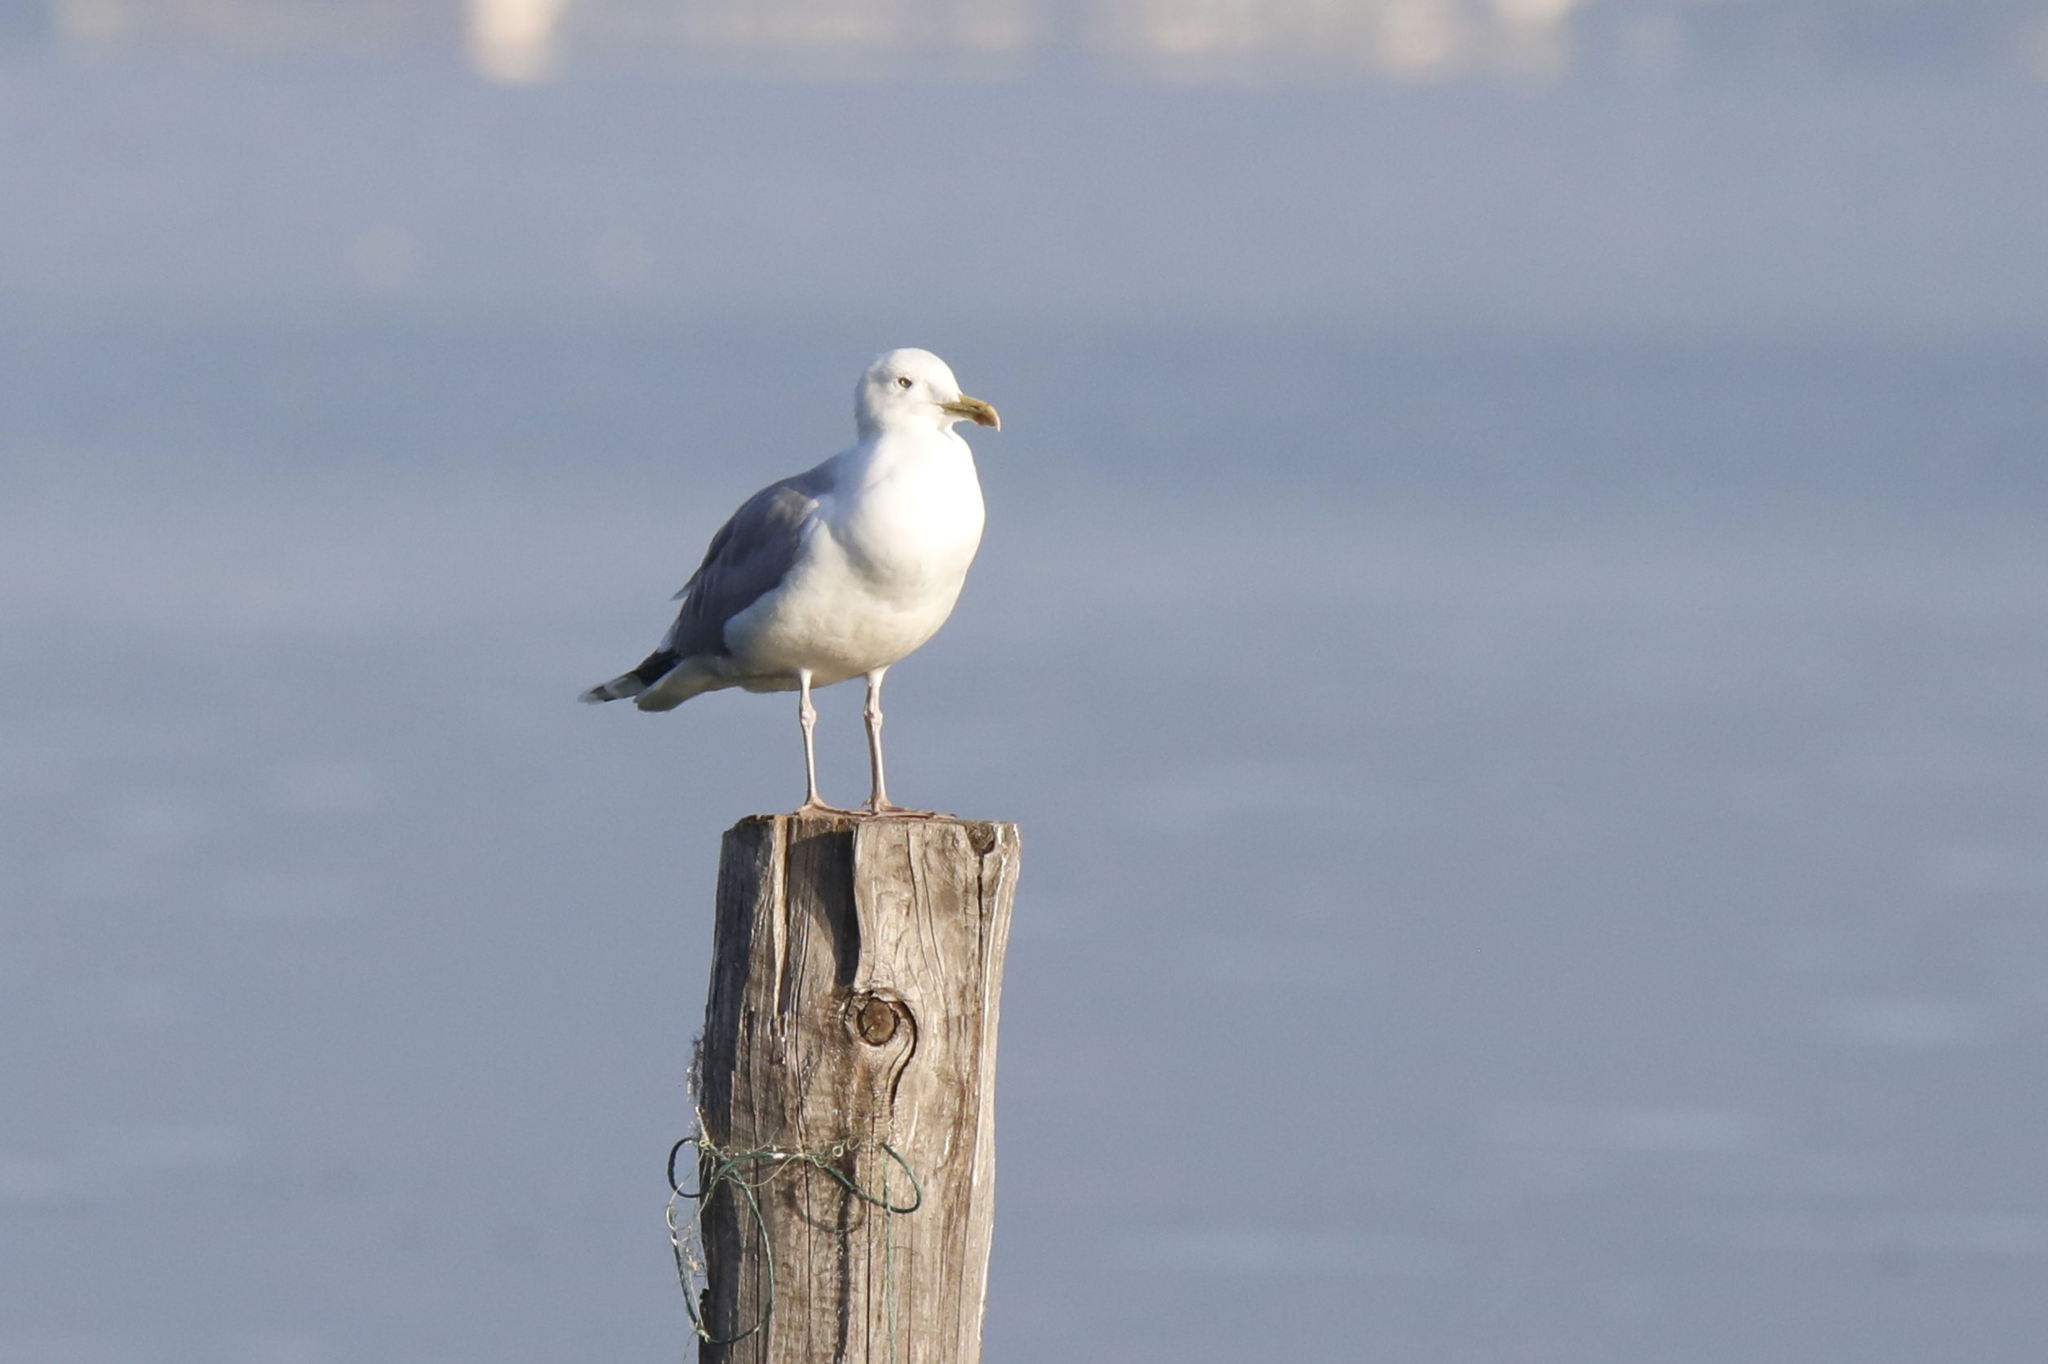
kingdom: Animalia
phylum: Chordata
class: Aves
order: Charadriiformes
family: Laridae
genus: Larus
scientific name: Larus cachinnans
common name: Caspian gull
